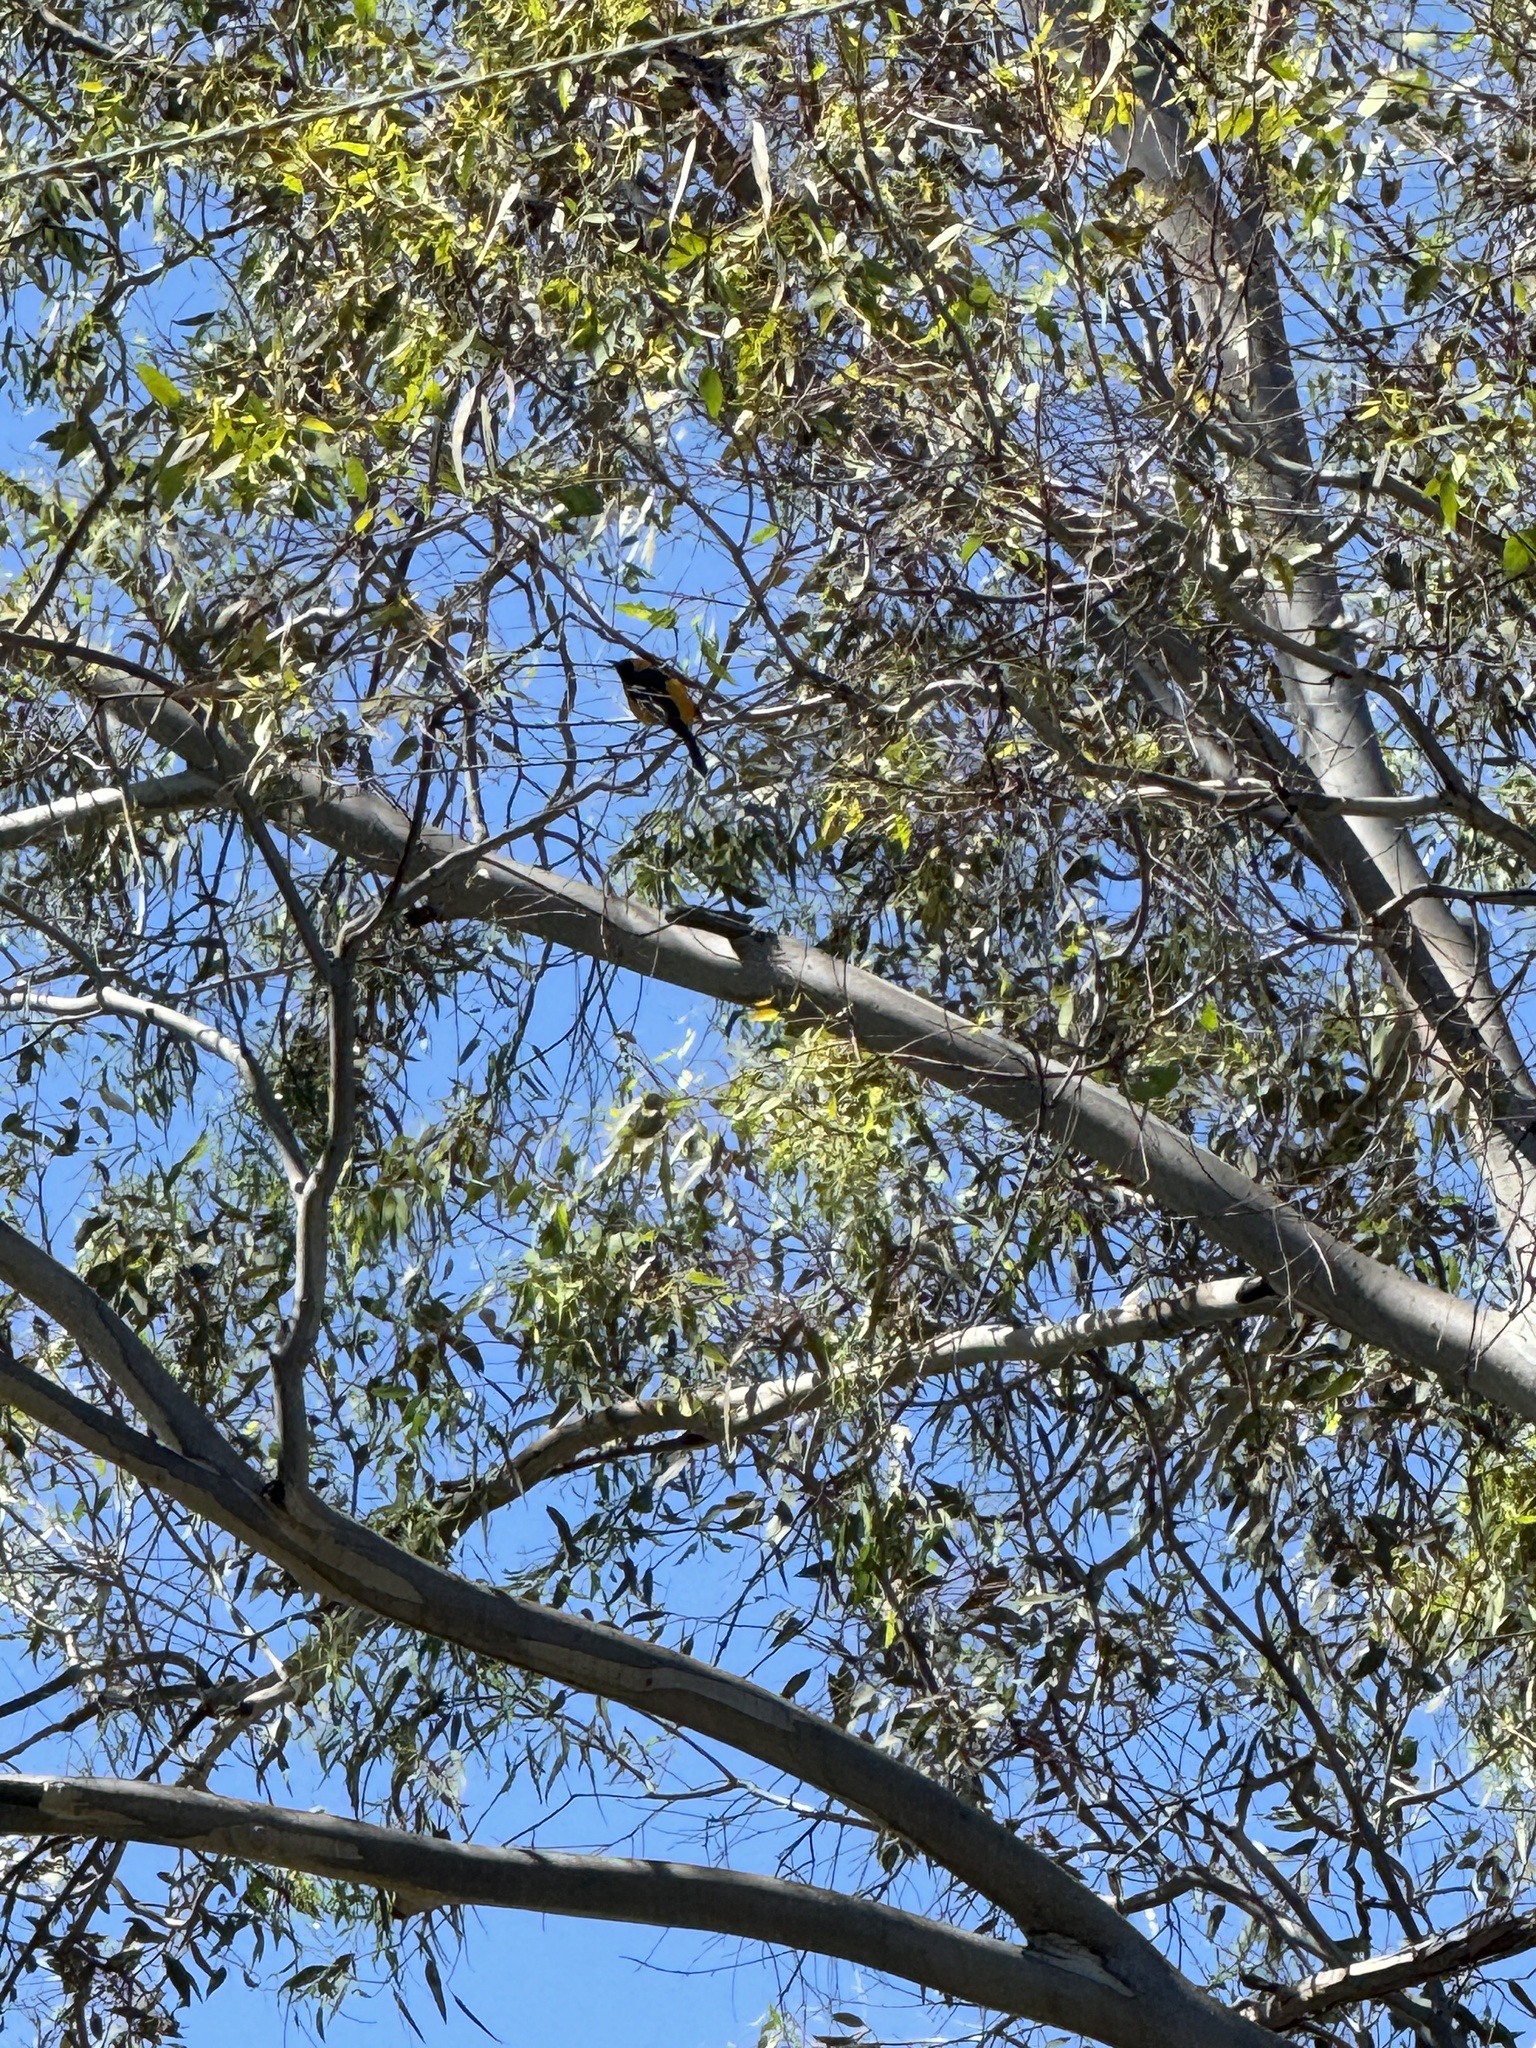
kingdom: Animalia
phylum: Chordata
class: Aves
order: Passeriformes
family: Icteridae
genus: Icterus
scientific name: Icterus cucullatus
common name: Hooded oriole
